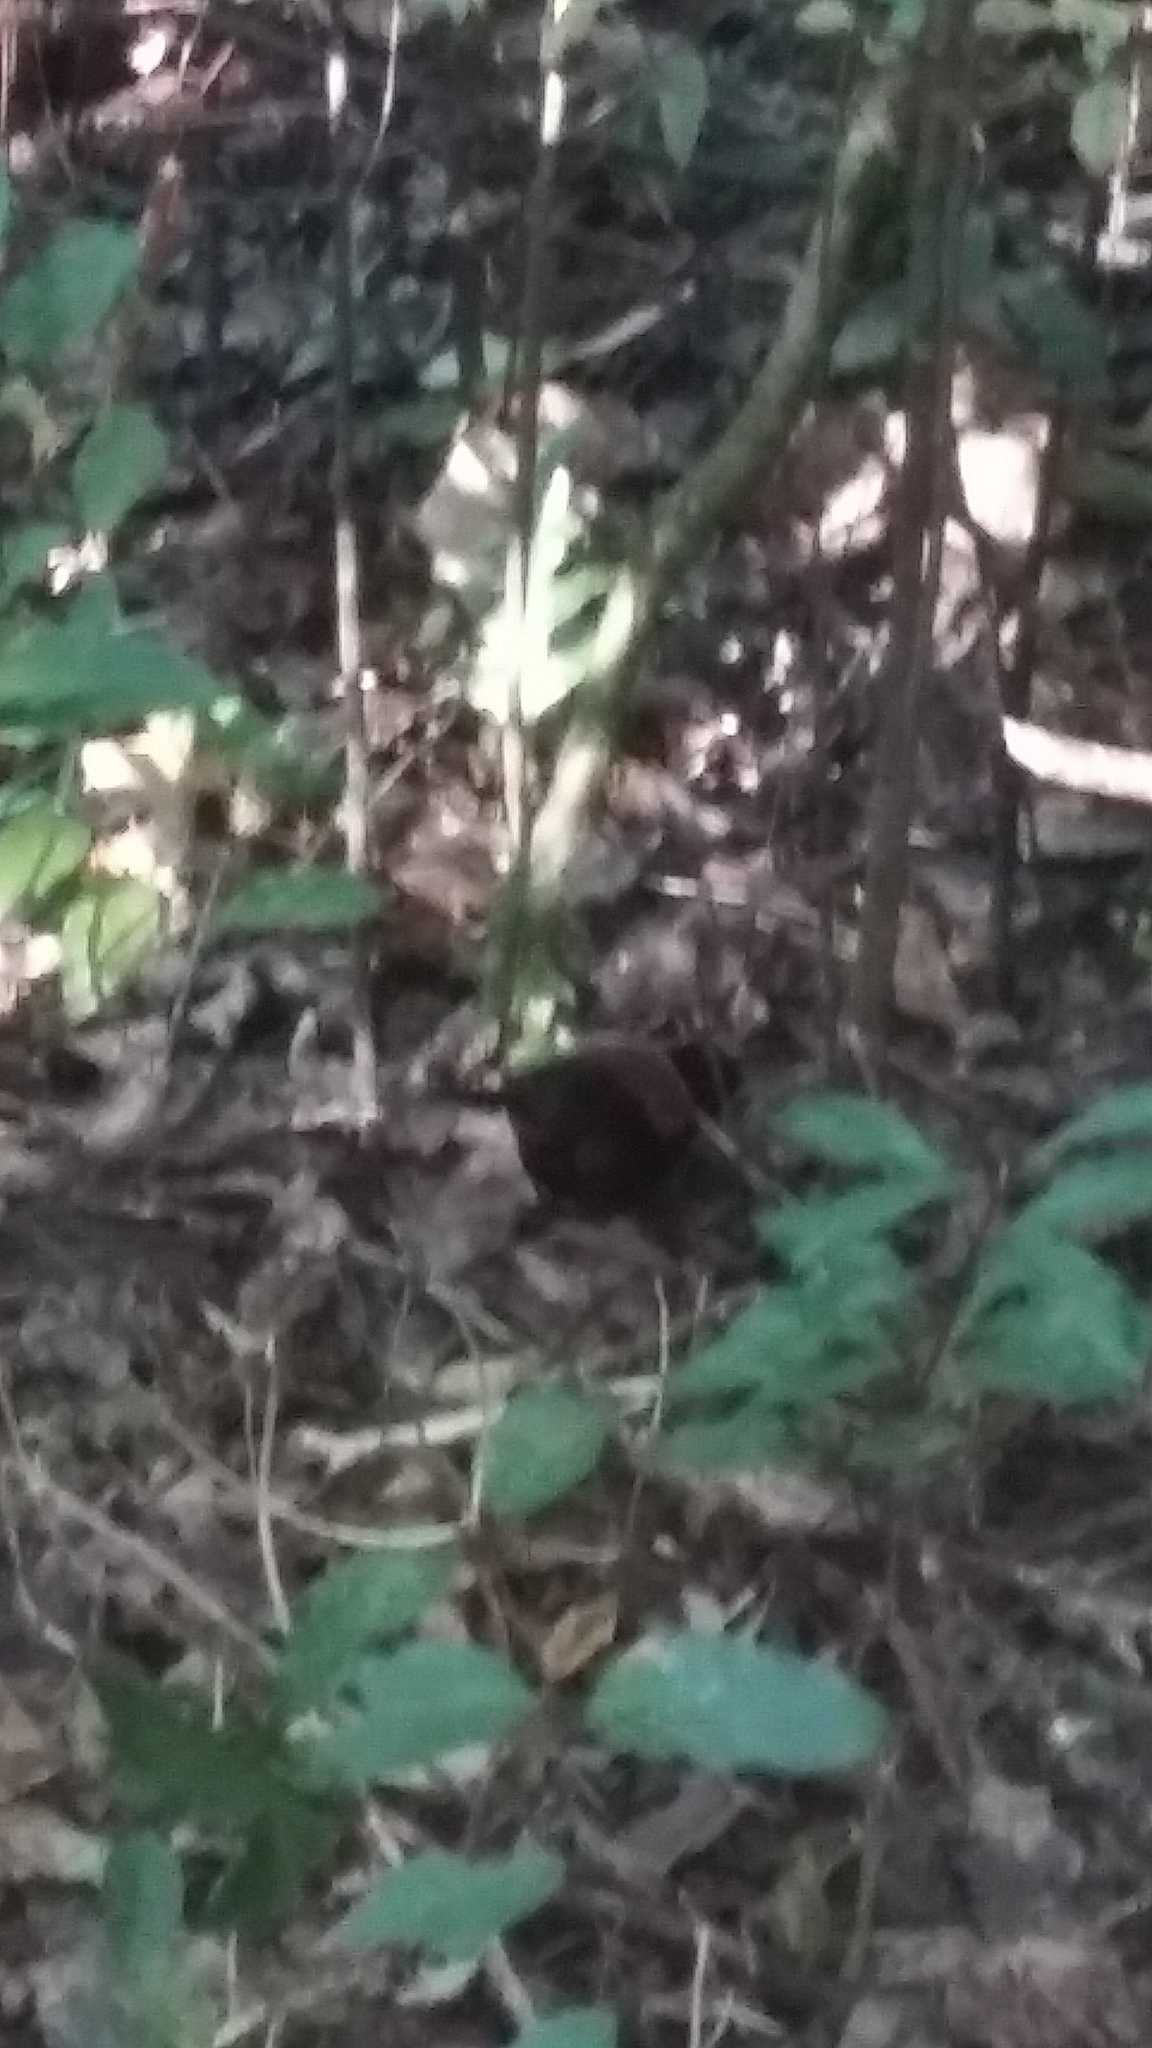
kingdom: Animalia
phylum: Chordata
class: Aves
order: Passeriformes
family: Callaeatidae
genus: Philesturnus
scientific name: Philesturnus carunculatus
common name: South island saddleback
